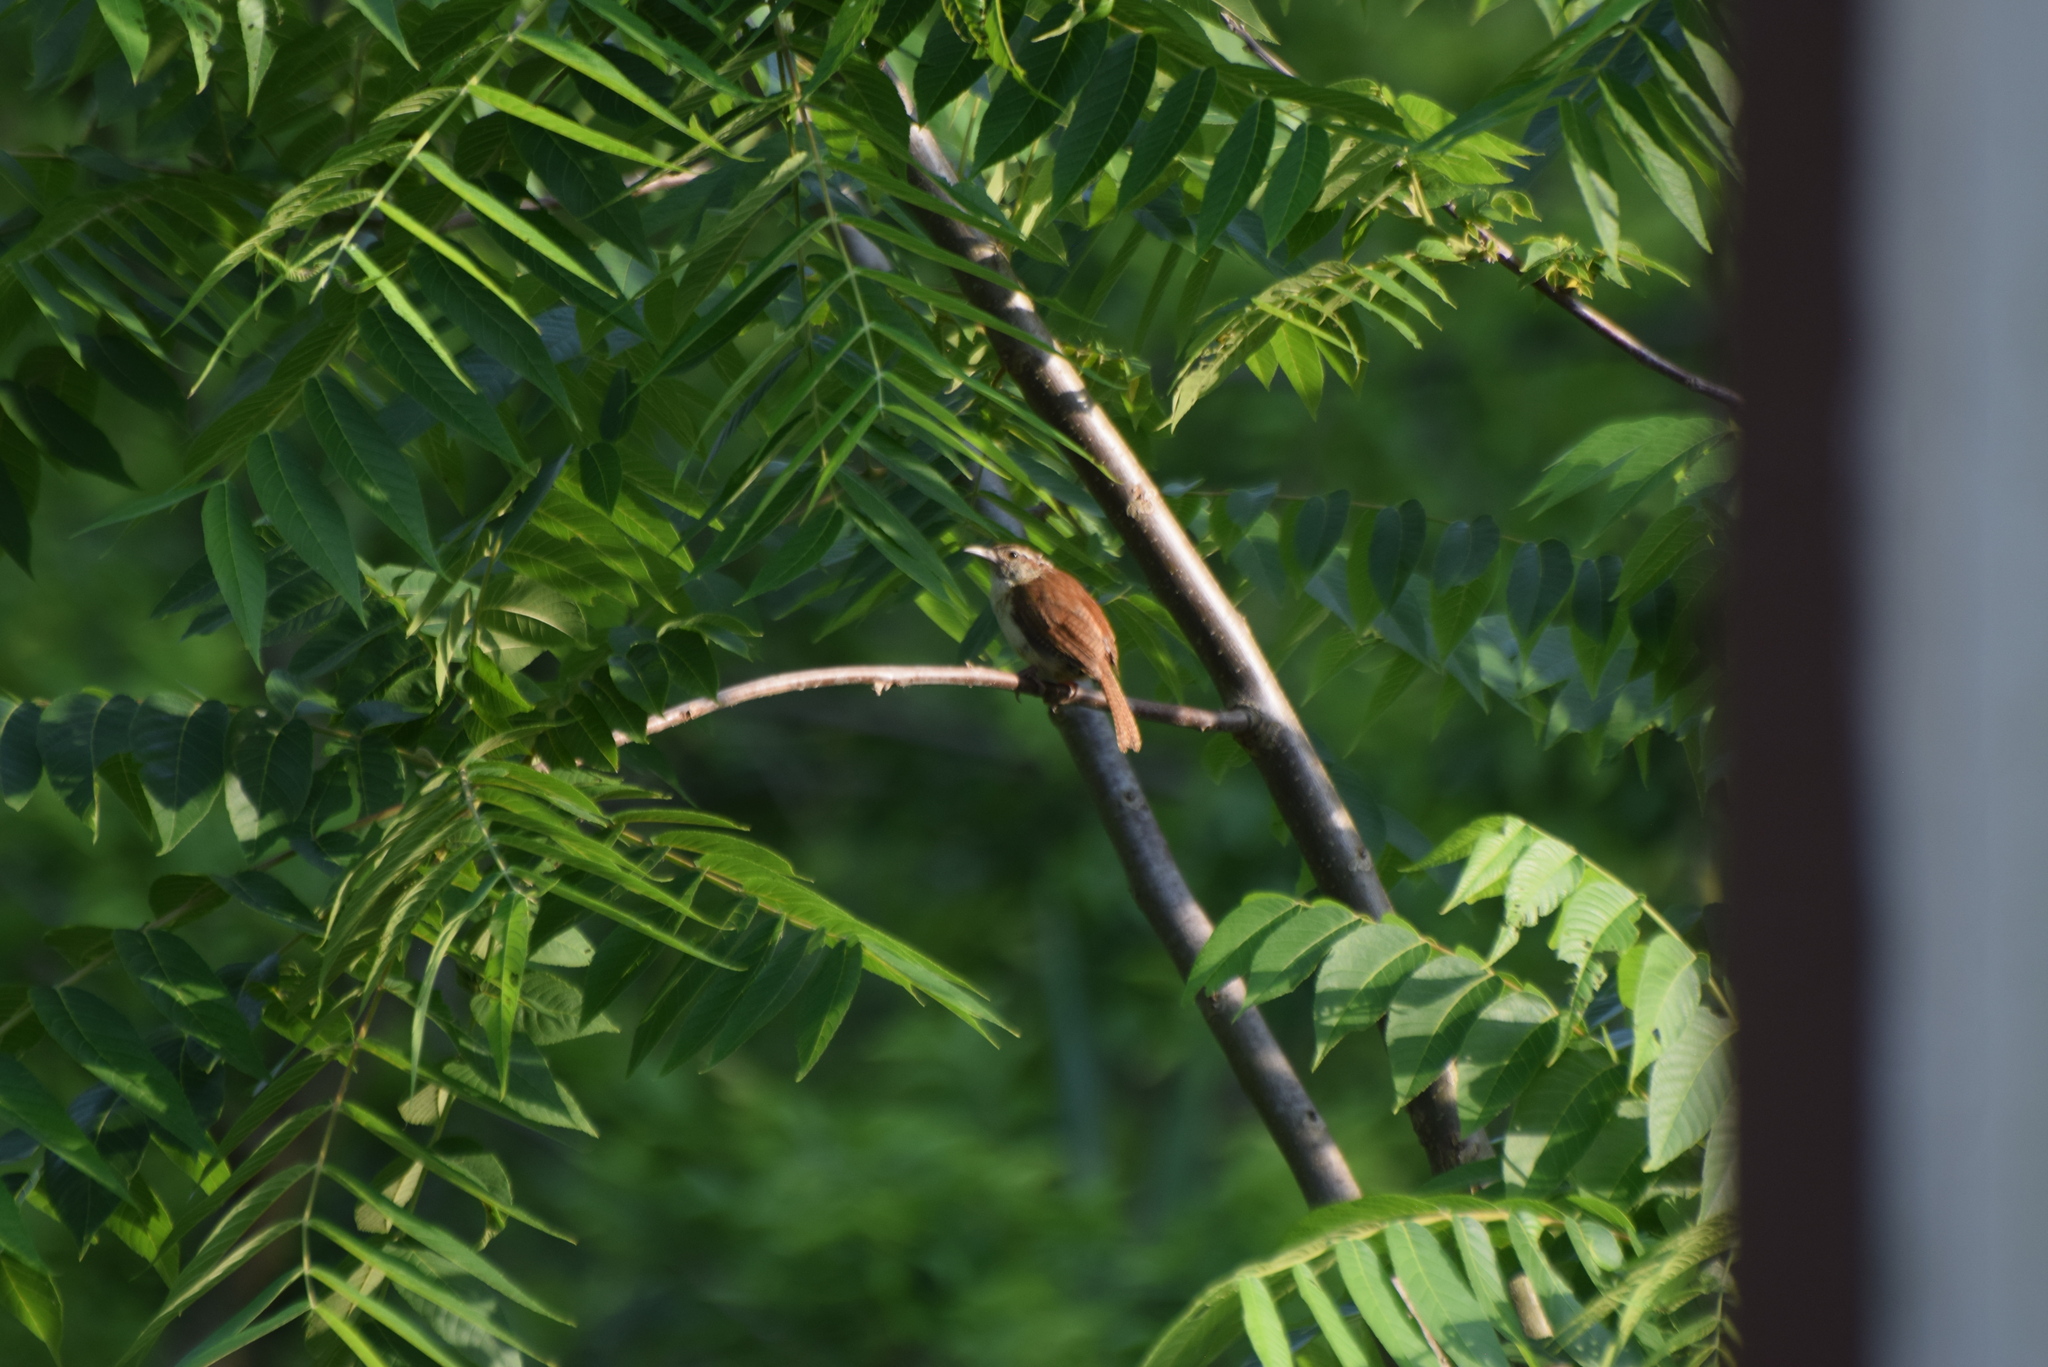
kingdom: Animalia
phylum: Chordata
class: Aves
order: Passeriformes
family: Troglodytidae
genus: Thryothorus
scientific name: Thryothorus ludovicianus
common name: Carolina wren
